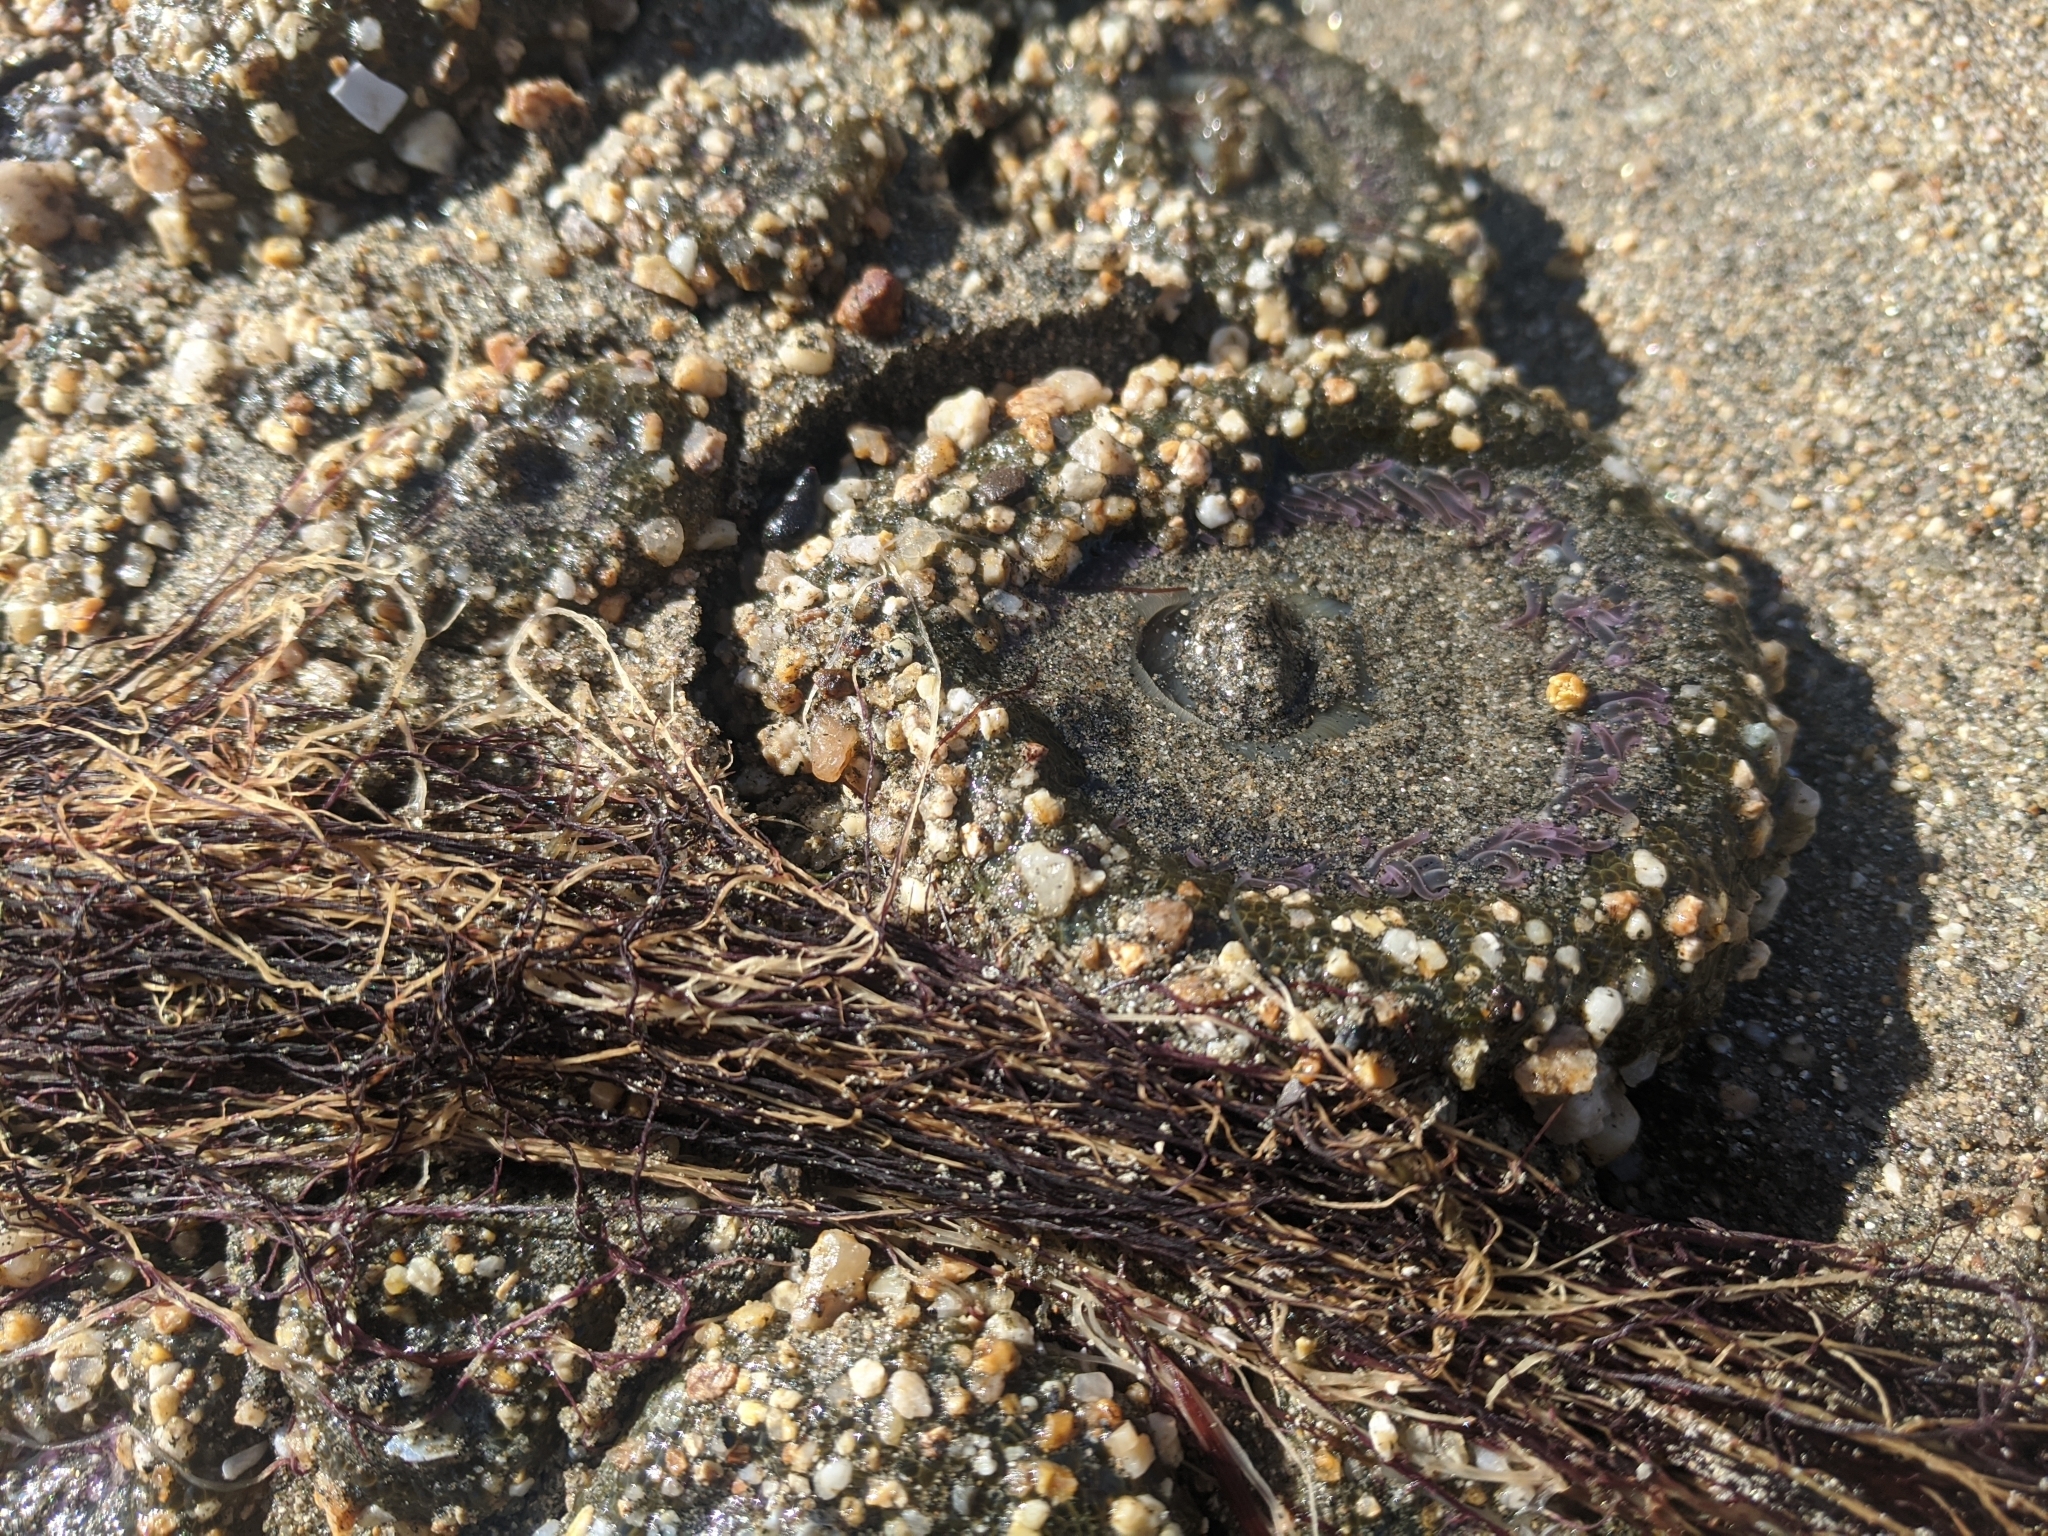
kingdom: Animalia
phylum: Cnidaria
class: Anthozoa
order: Actiniaria
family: Actiniidae
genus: Anthopleura
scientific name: Anthopleura elegantissima
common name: Clonal anemone
